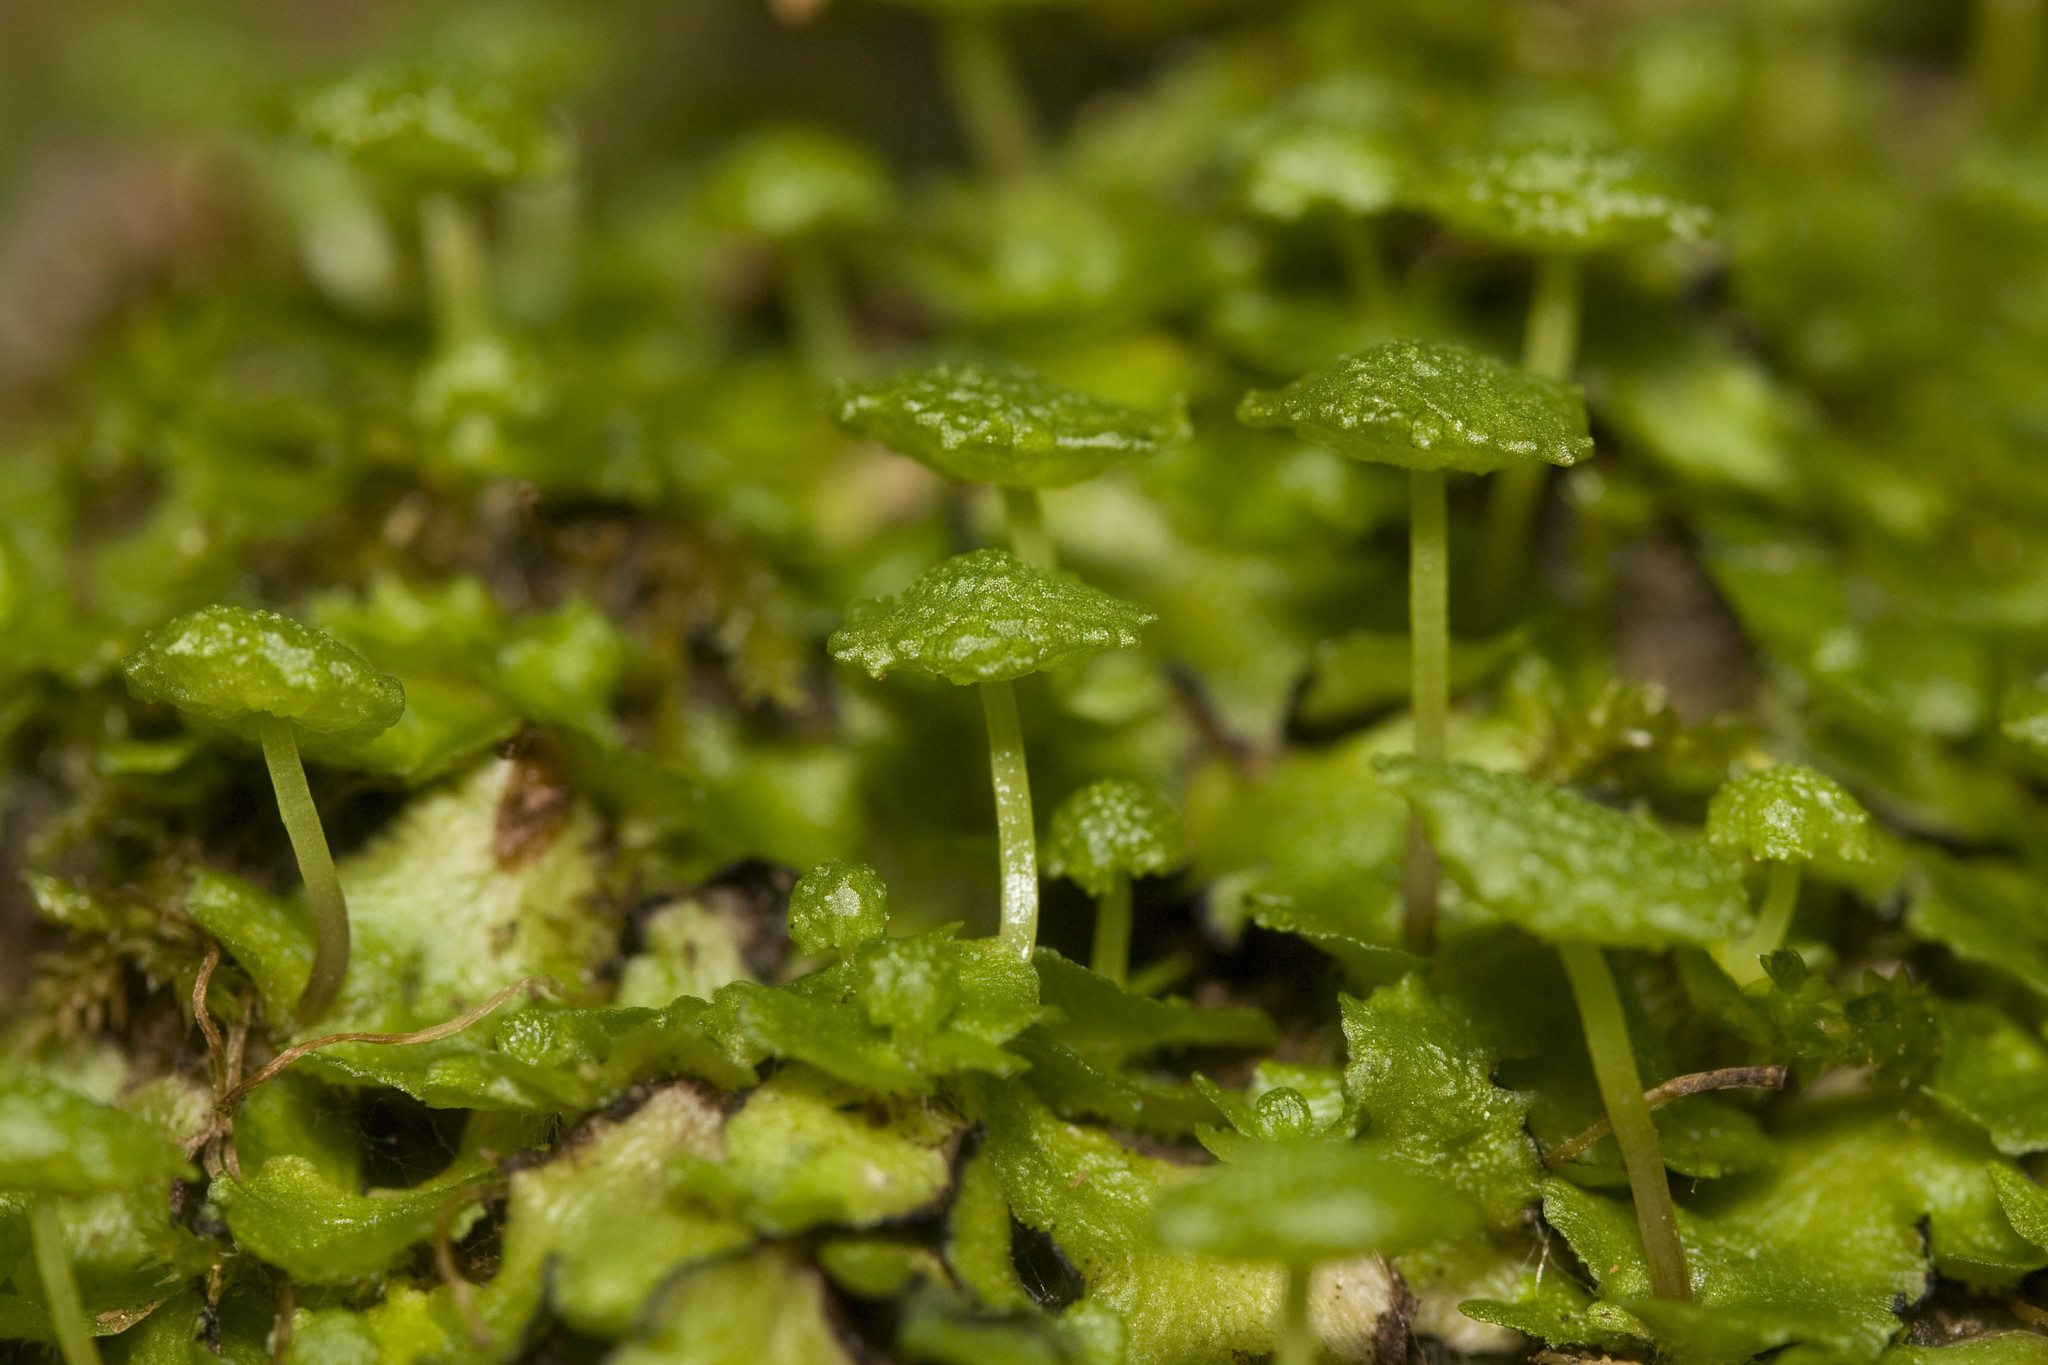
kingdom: Plantae
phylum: Marchantiophyta
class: Marchantiopsida
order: Marchantiales
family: Aytoniaceae
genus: Cryptomitrium
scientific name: Cryptomitrium tenerum
